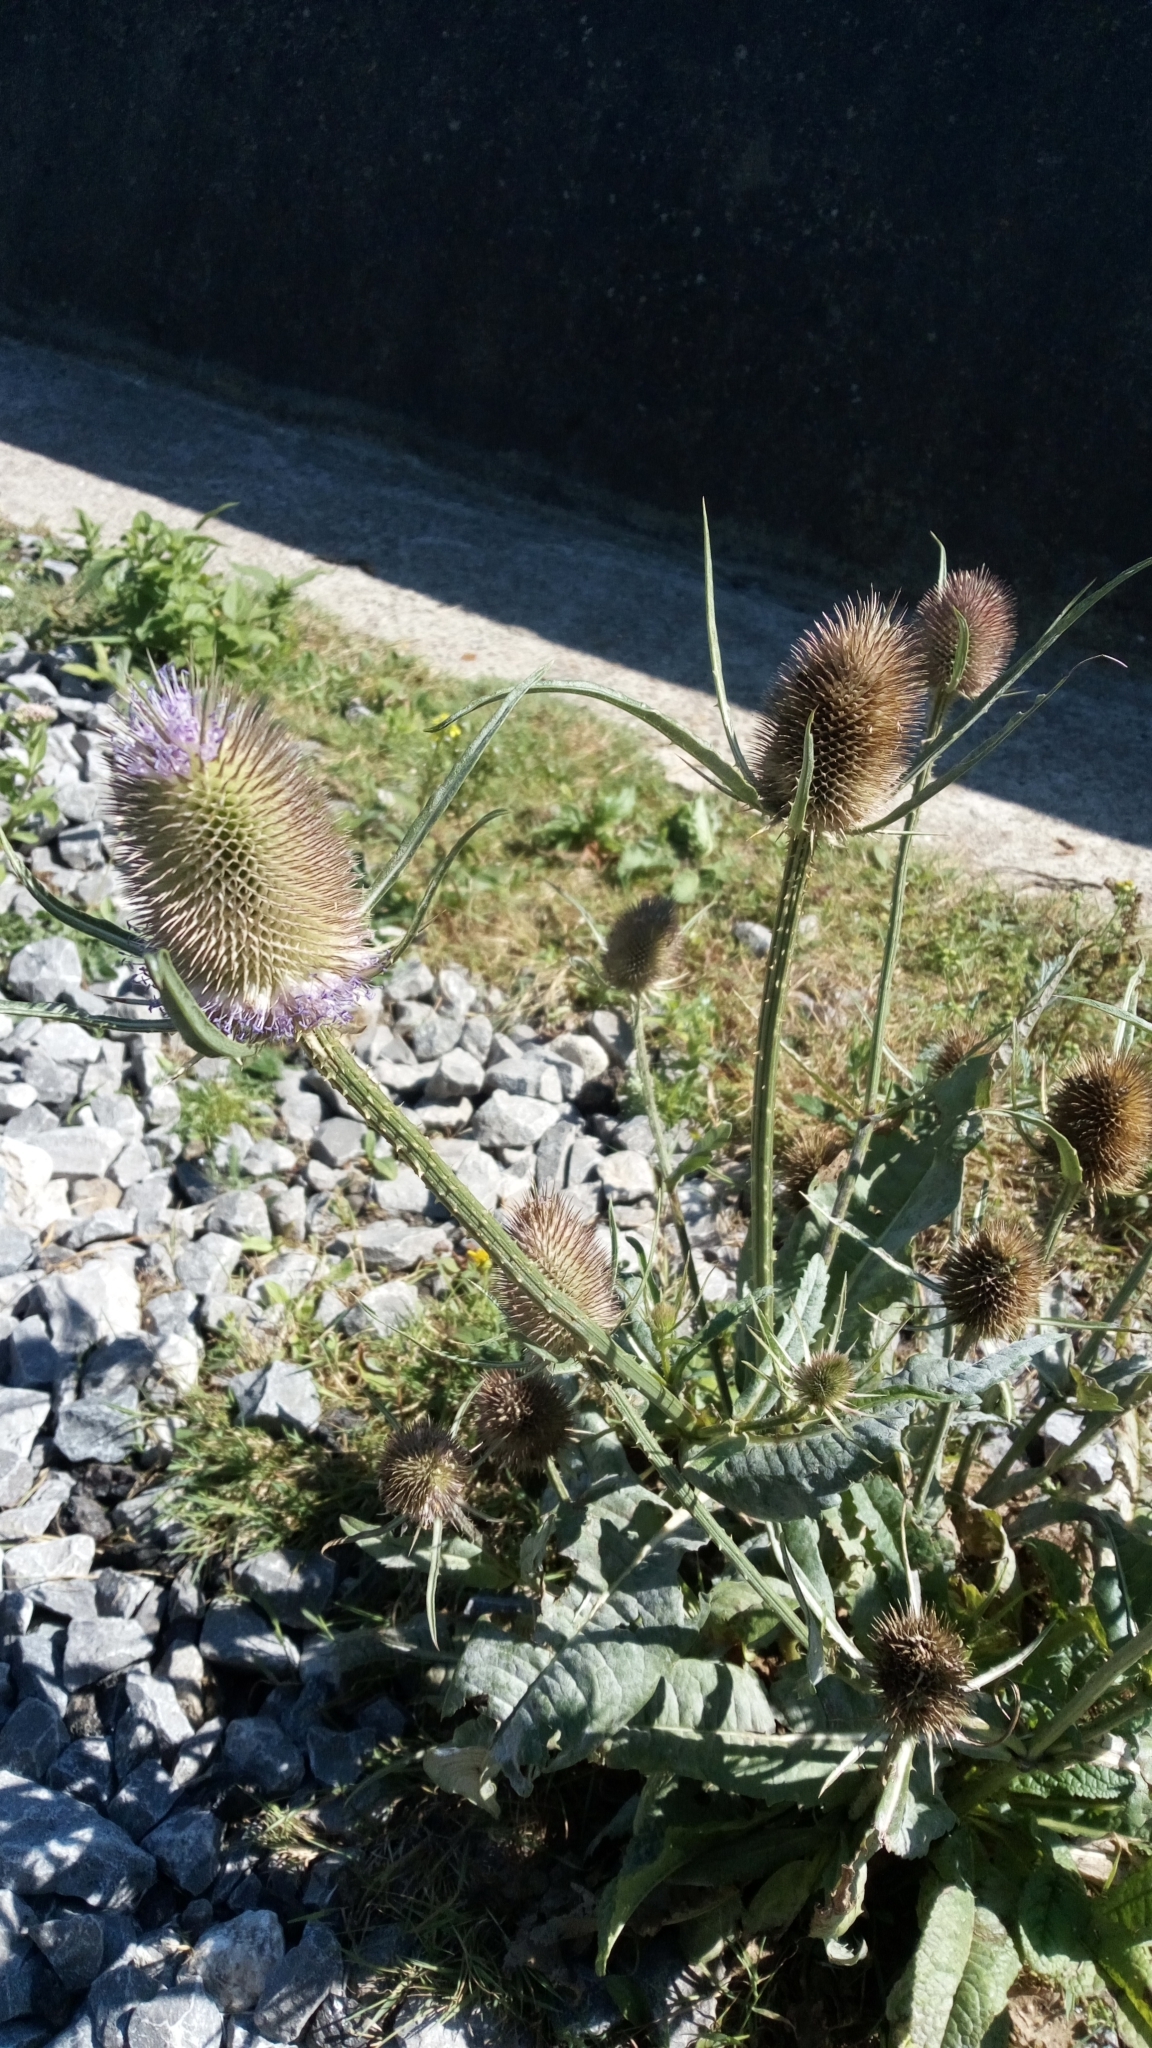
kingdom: Plantae
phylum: Tracheophyta
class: Magnoliopsida
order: Dipsacales
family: Caprifoliaceae
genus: Dipsacus
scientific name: Dipsacus fullonum
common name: Teasel
